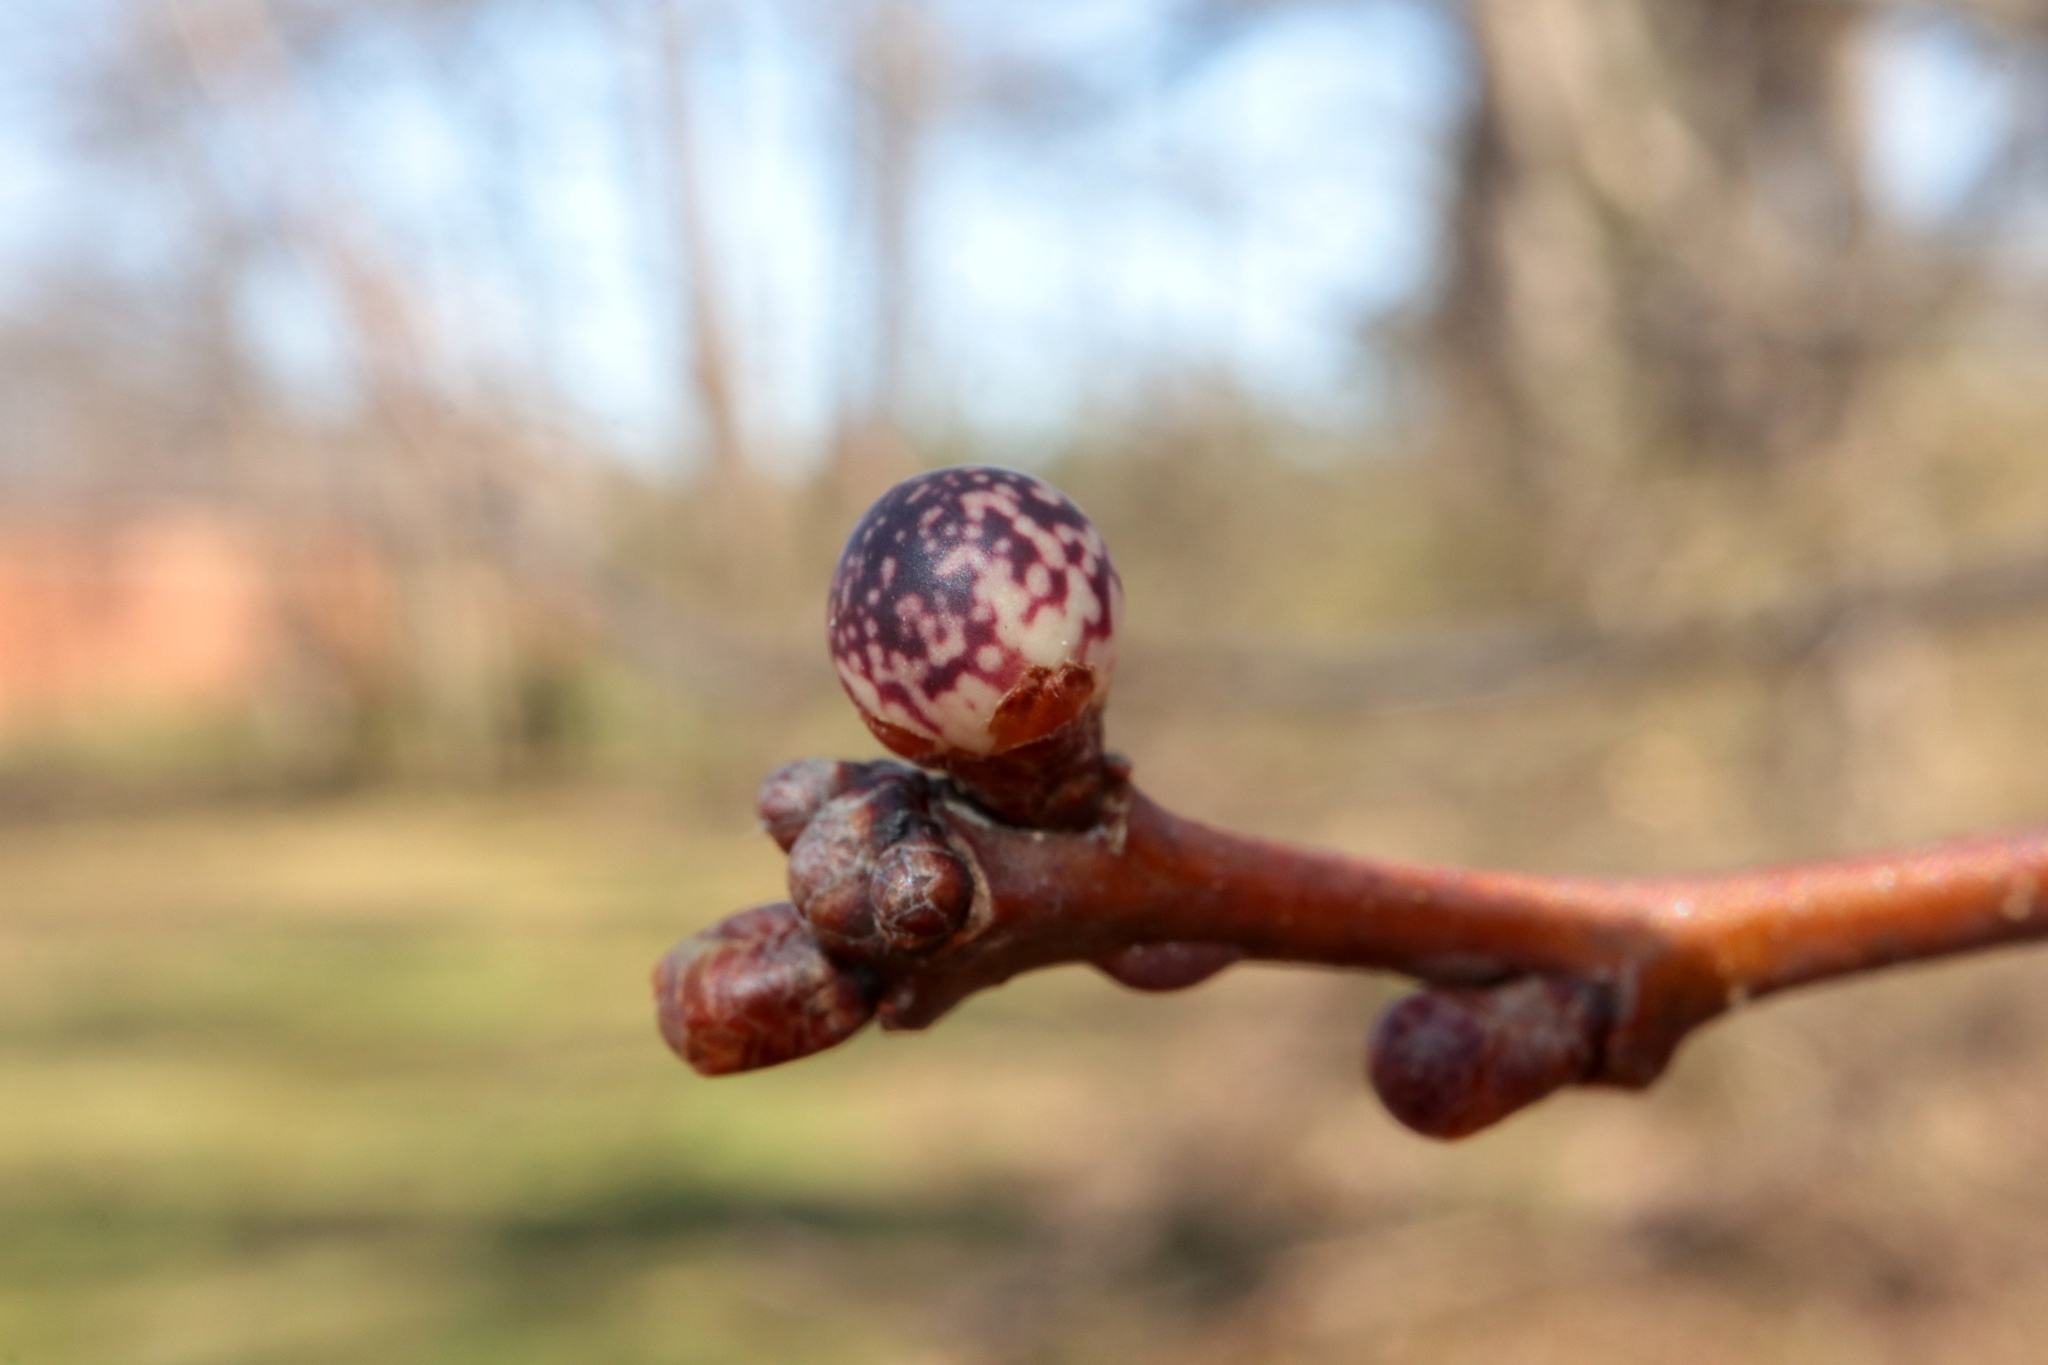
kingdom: Animalia
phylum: Arthropoda
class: Insecta
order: Hymenoptera
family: Cynipidae
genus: Andricus
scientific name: Andricus
